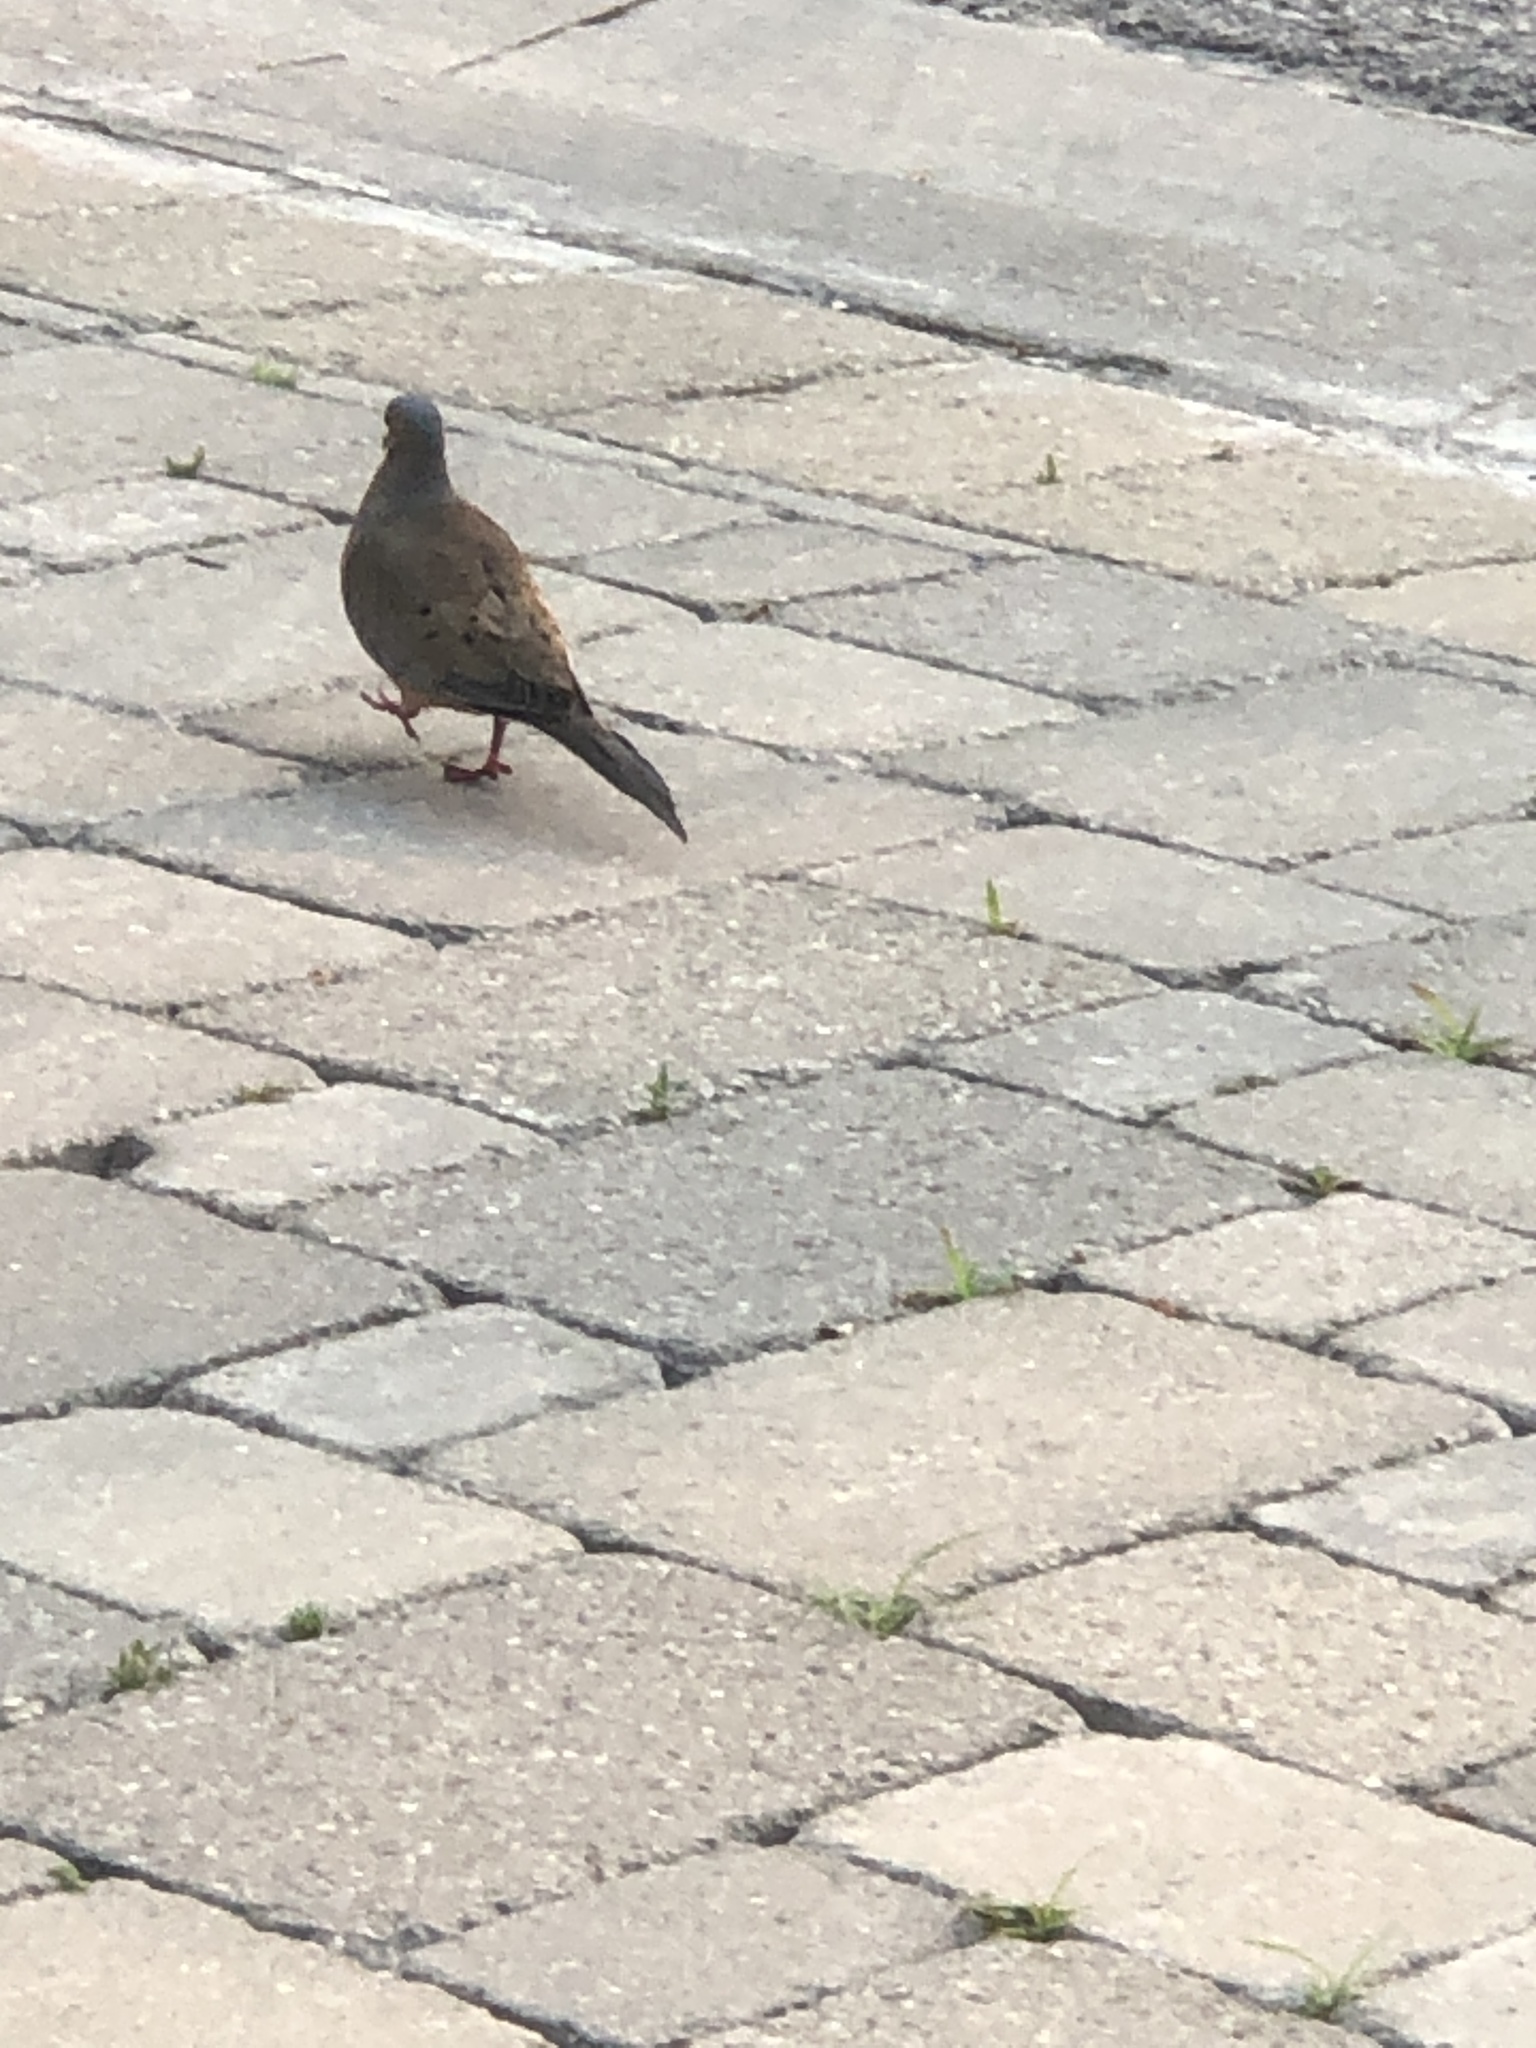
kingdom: Animalia
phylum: Chordata
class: Aves
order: Columbiformes
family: Columbidae
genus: Zenaida
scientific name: Zenaida macroura
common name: Mourning dove
